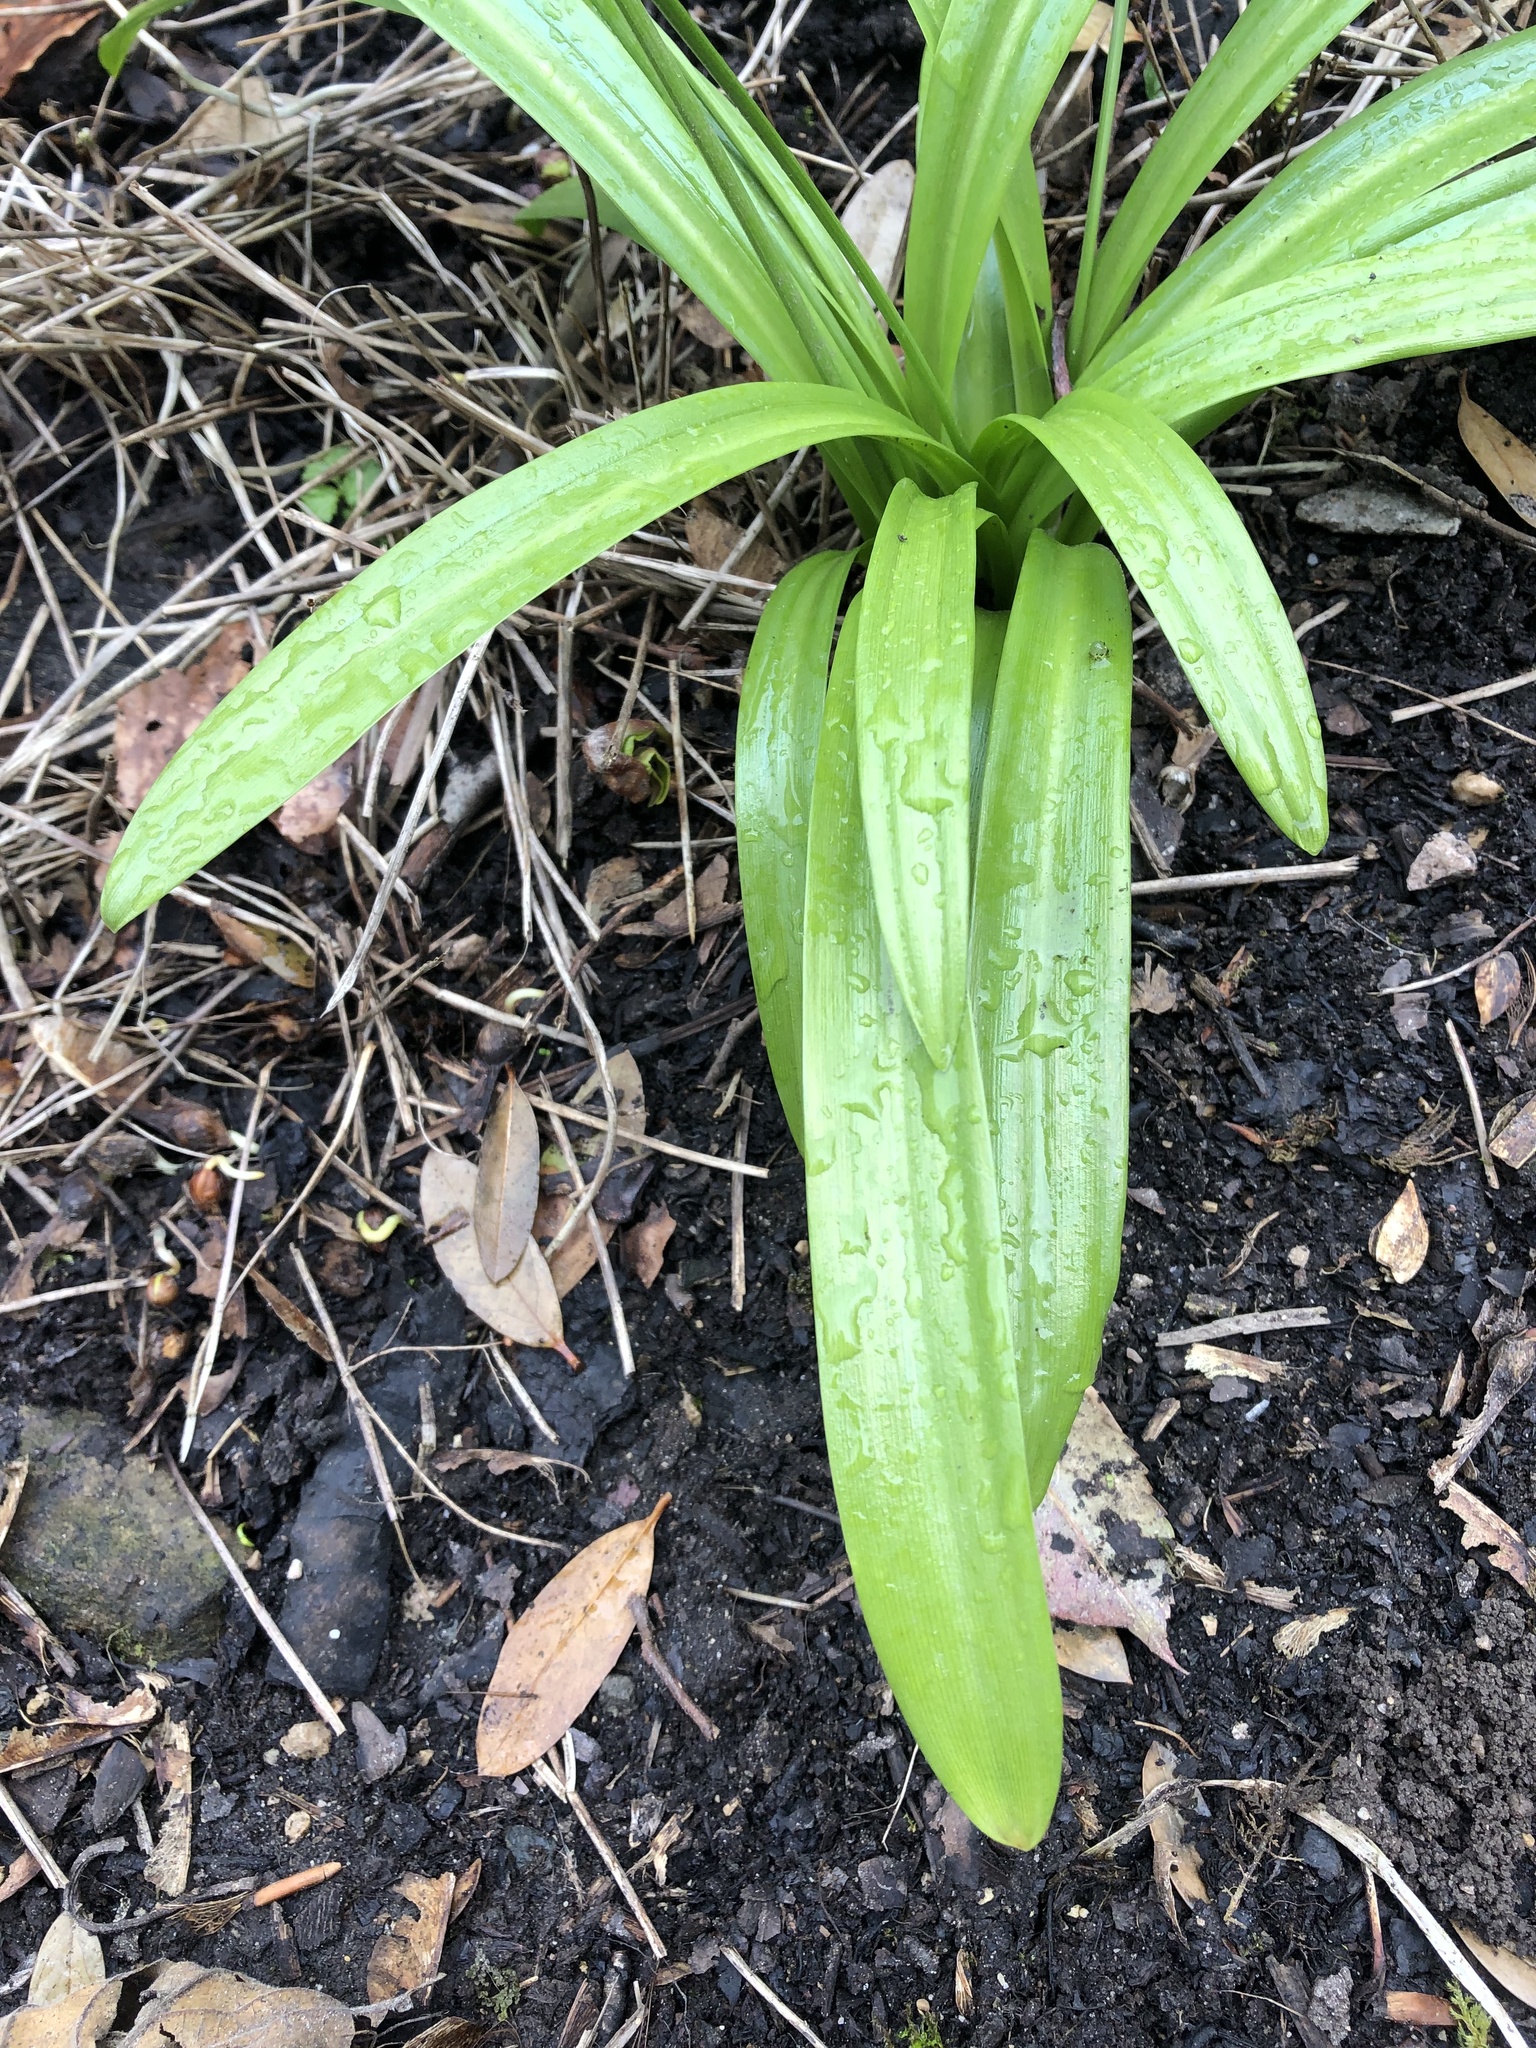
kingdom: Plantae
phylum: Tracheophyta
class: Liliopsida
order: Asparagales
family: Amaryllidaceae
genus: Galanthus
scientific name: Galanthus woronowii
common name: Green snowdrop
